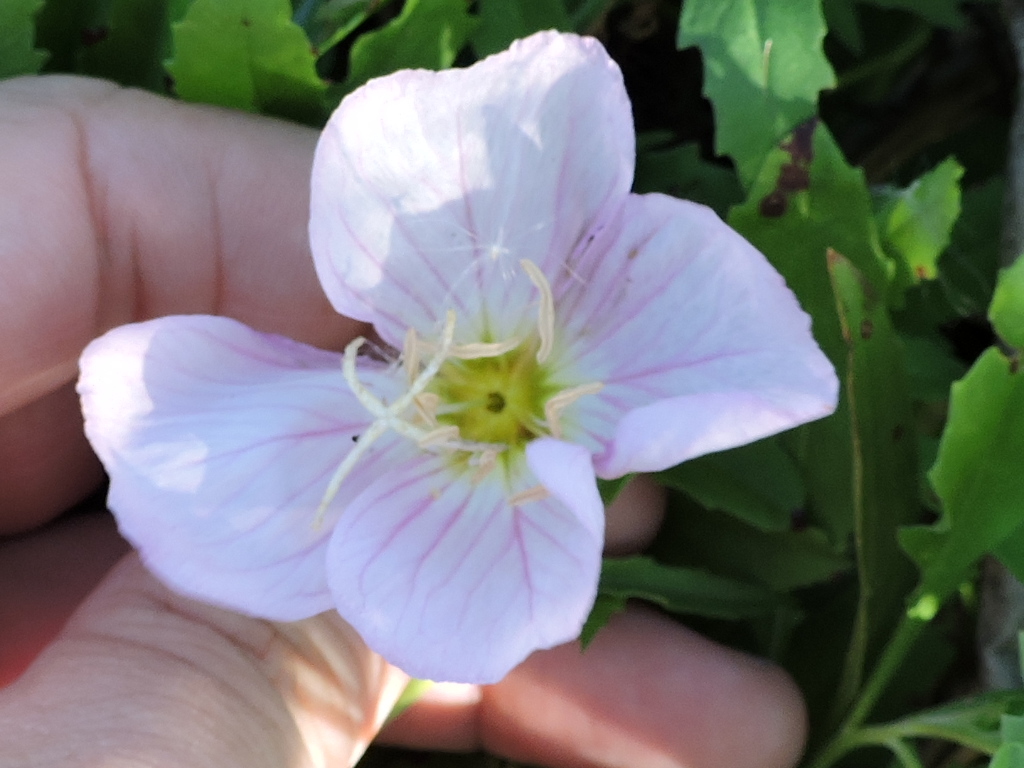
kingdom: Plantae
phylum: Tracheophyta
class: Magnoliopsida
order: Myrtales
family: Onagraceae
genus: Oenothera
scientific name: Oenothera speciosa
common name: White evening-primrose
